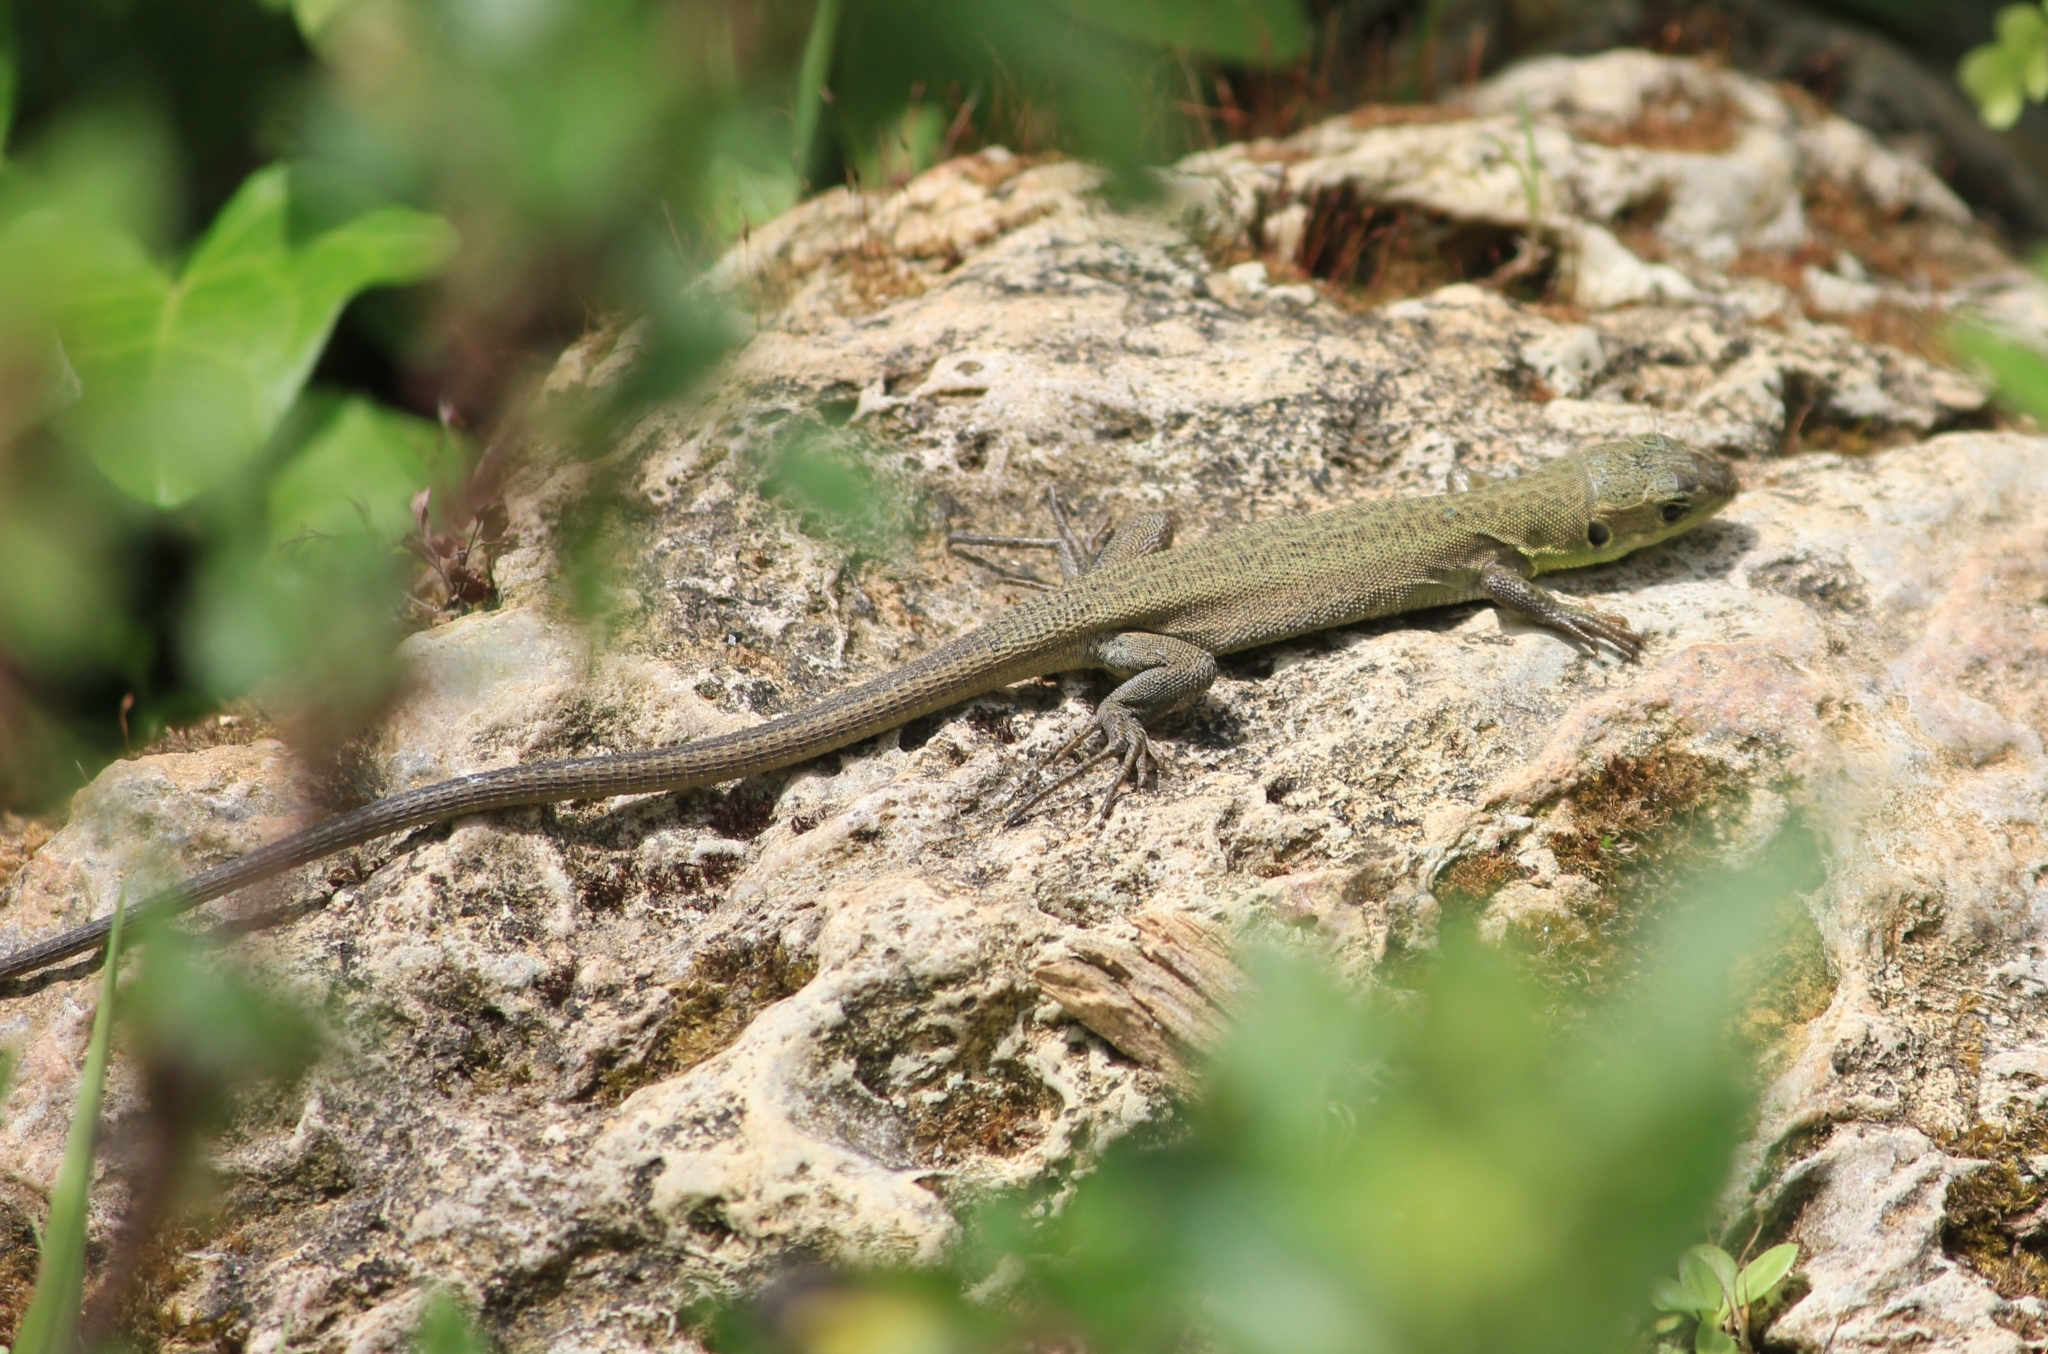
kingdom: Animalia
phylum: Chordata
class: Squamata
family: Lacertidae
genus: Lacerta
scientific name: Lacerta trilineata
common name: Balkan green lizard
